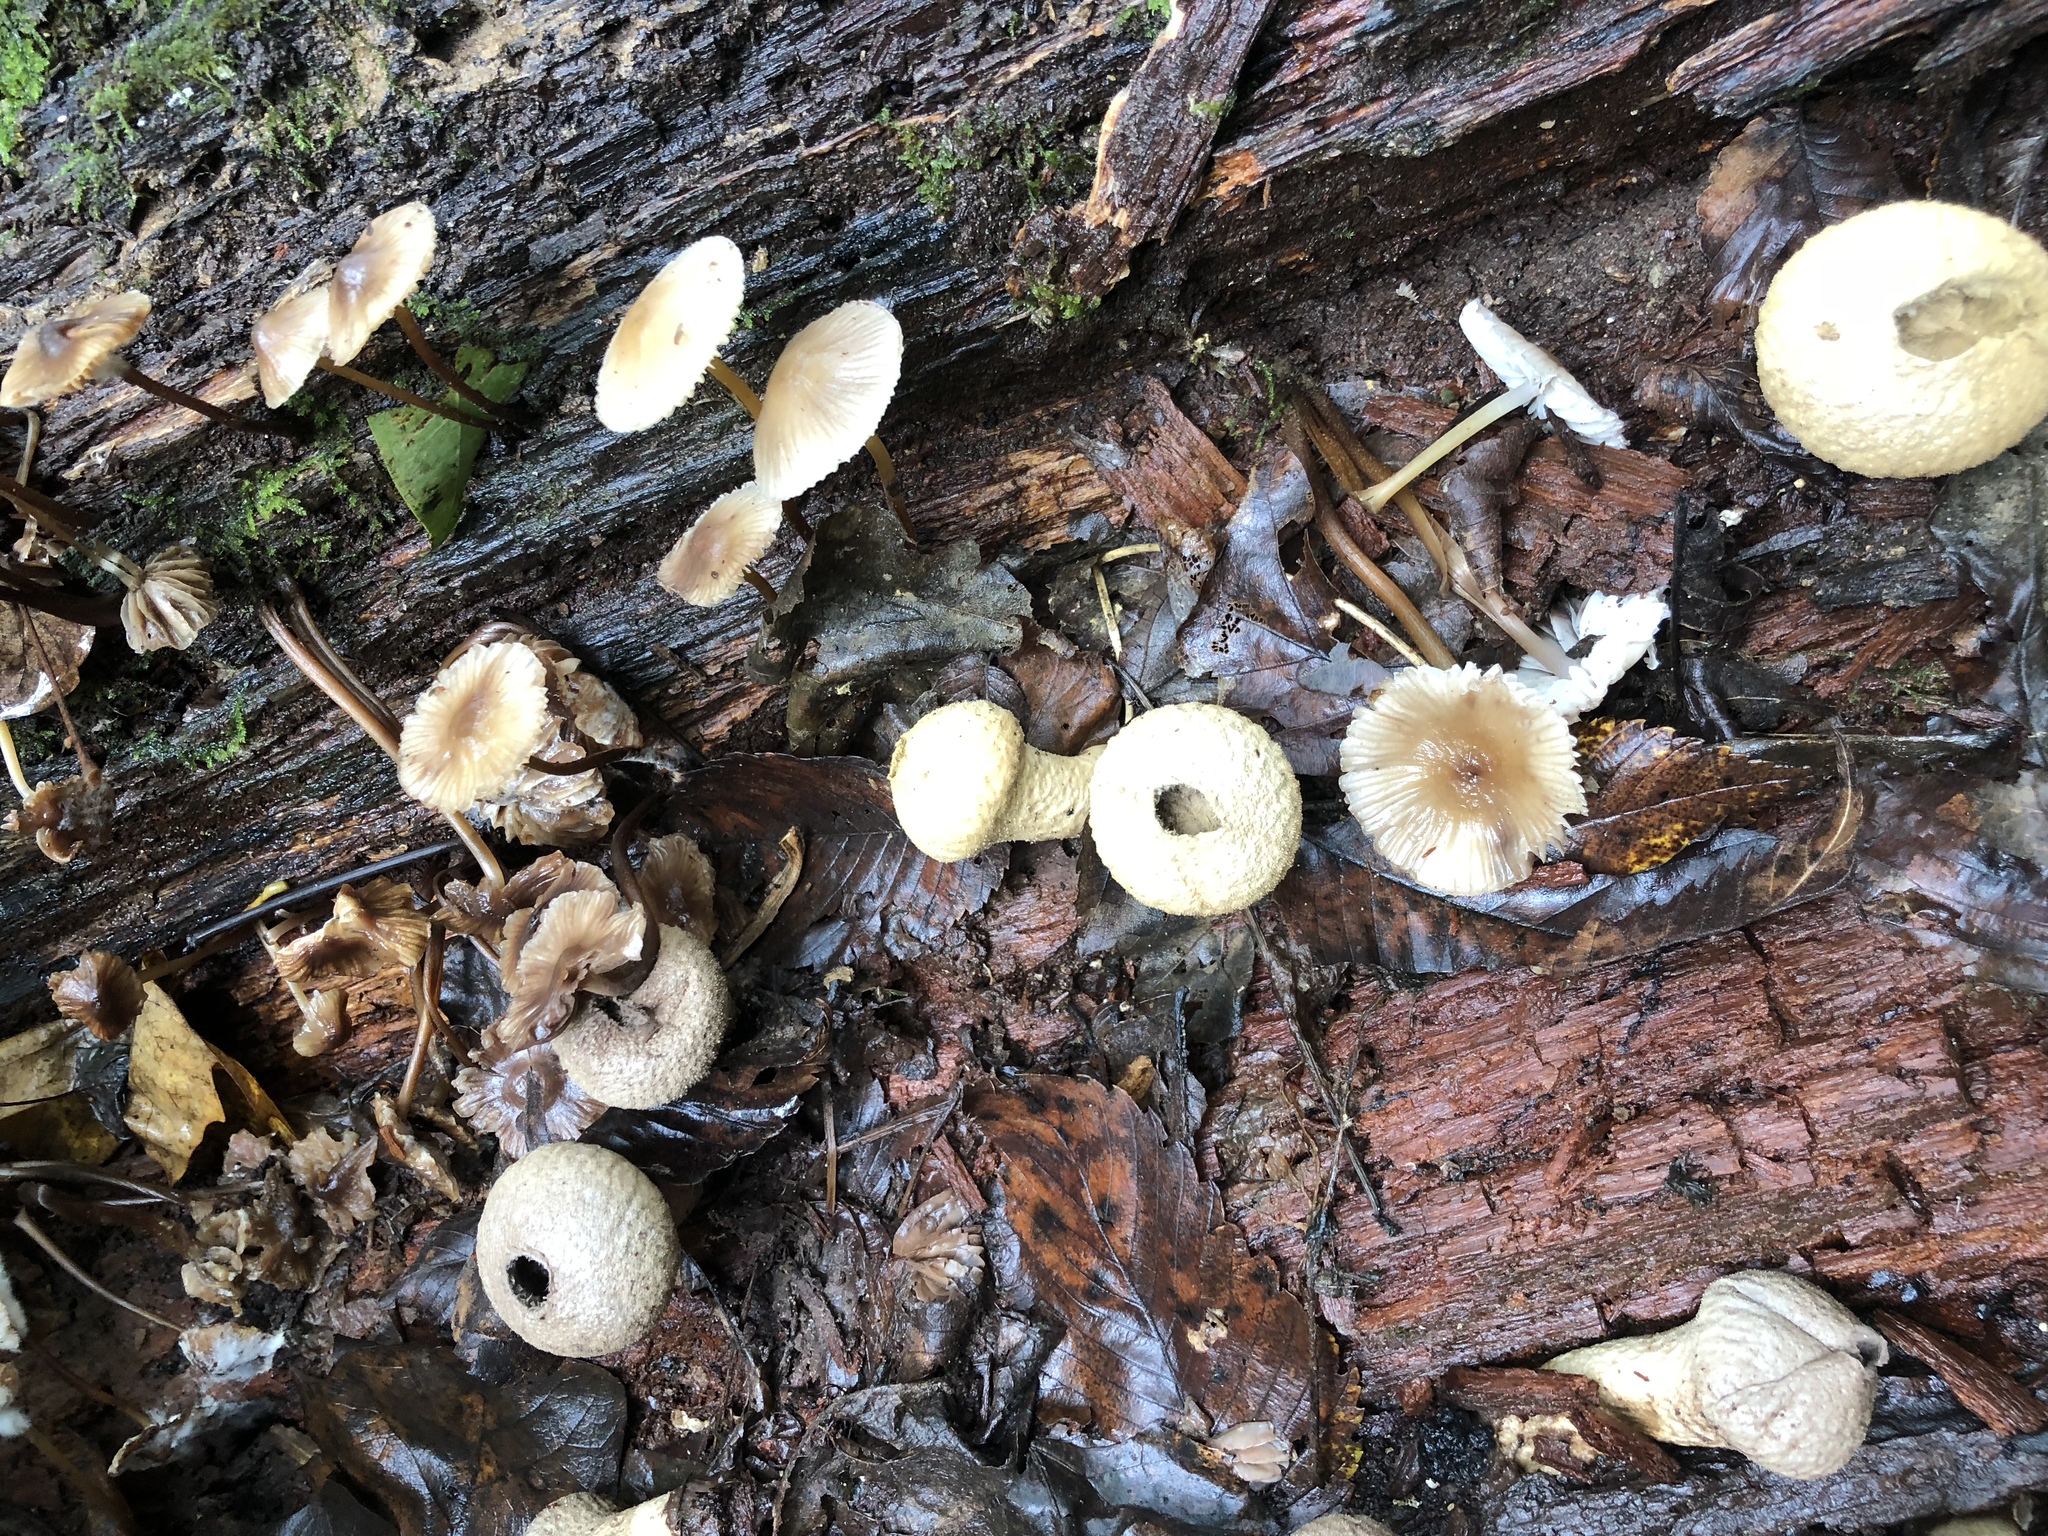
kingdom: Fungi
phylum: Basidiomycota
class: Agaricomycetes
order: Agaricales
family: Lycoperdaceae
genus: Apioperdon
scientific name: Apioperdon pyriforme
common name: Pear-shaped puffball
